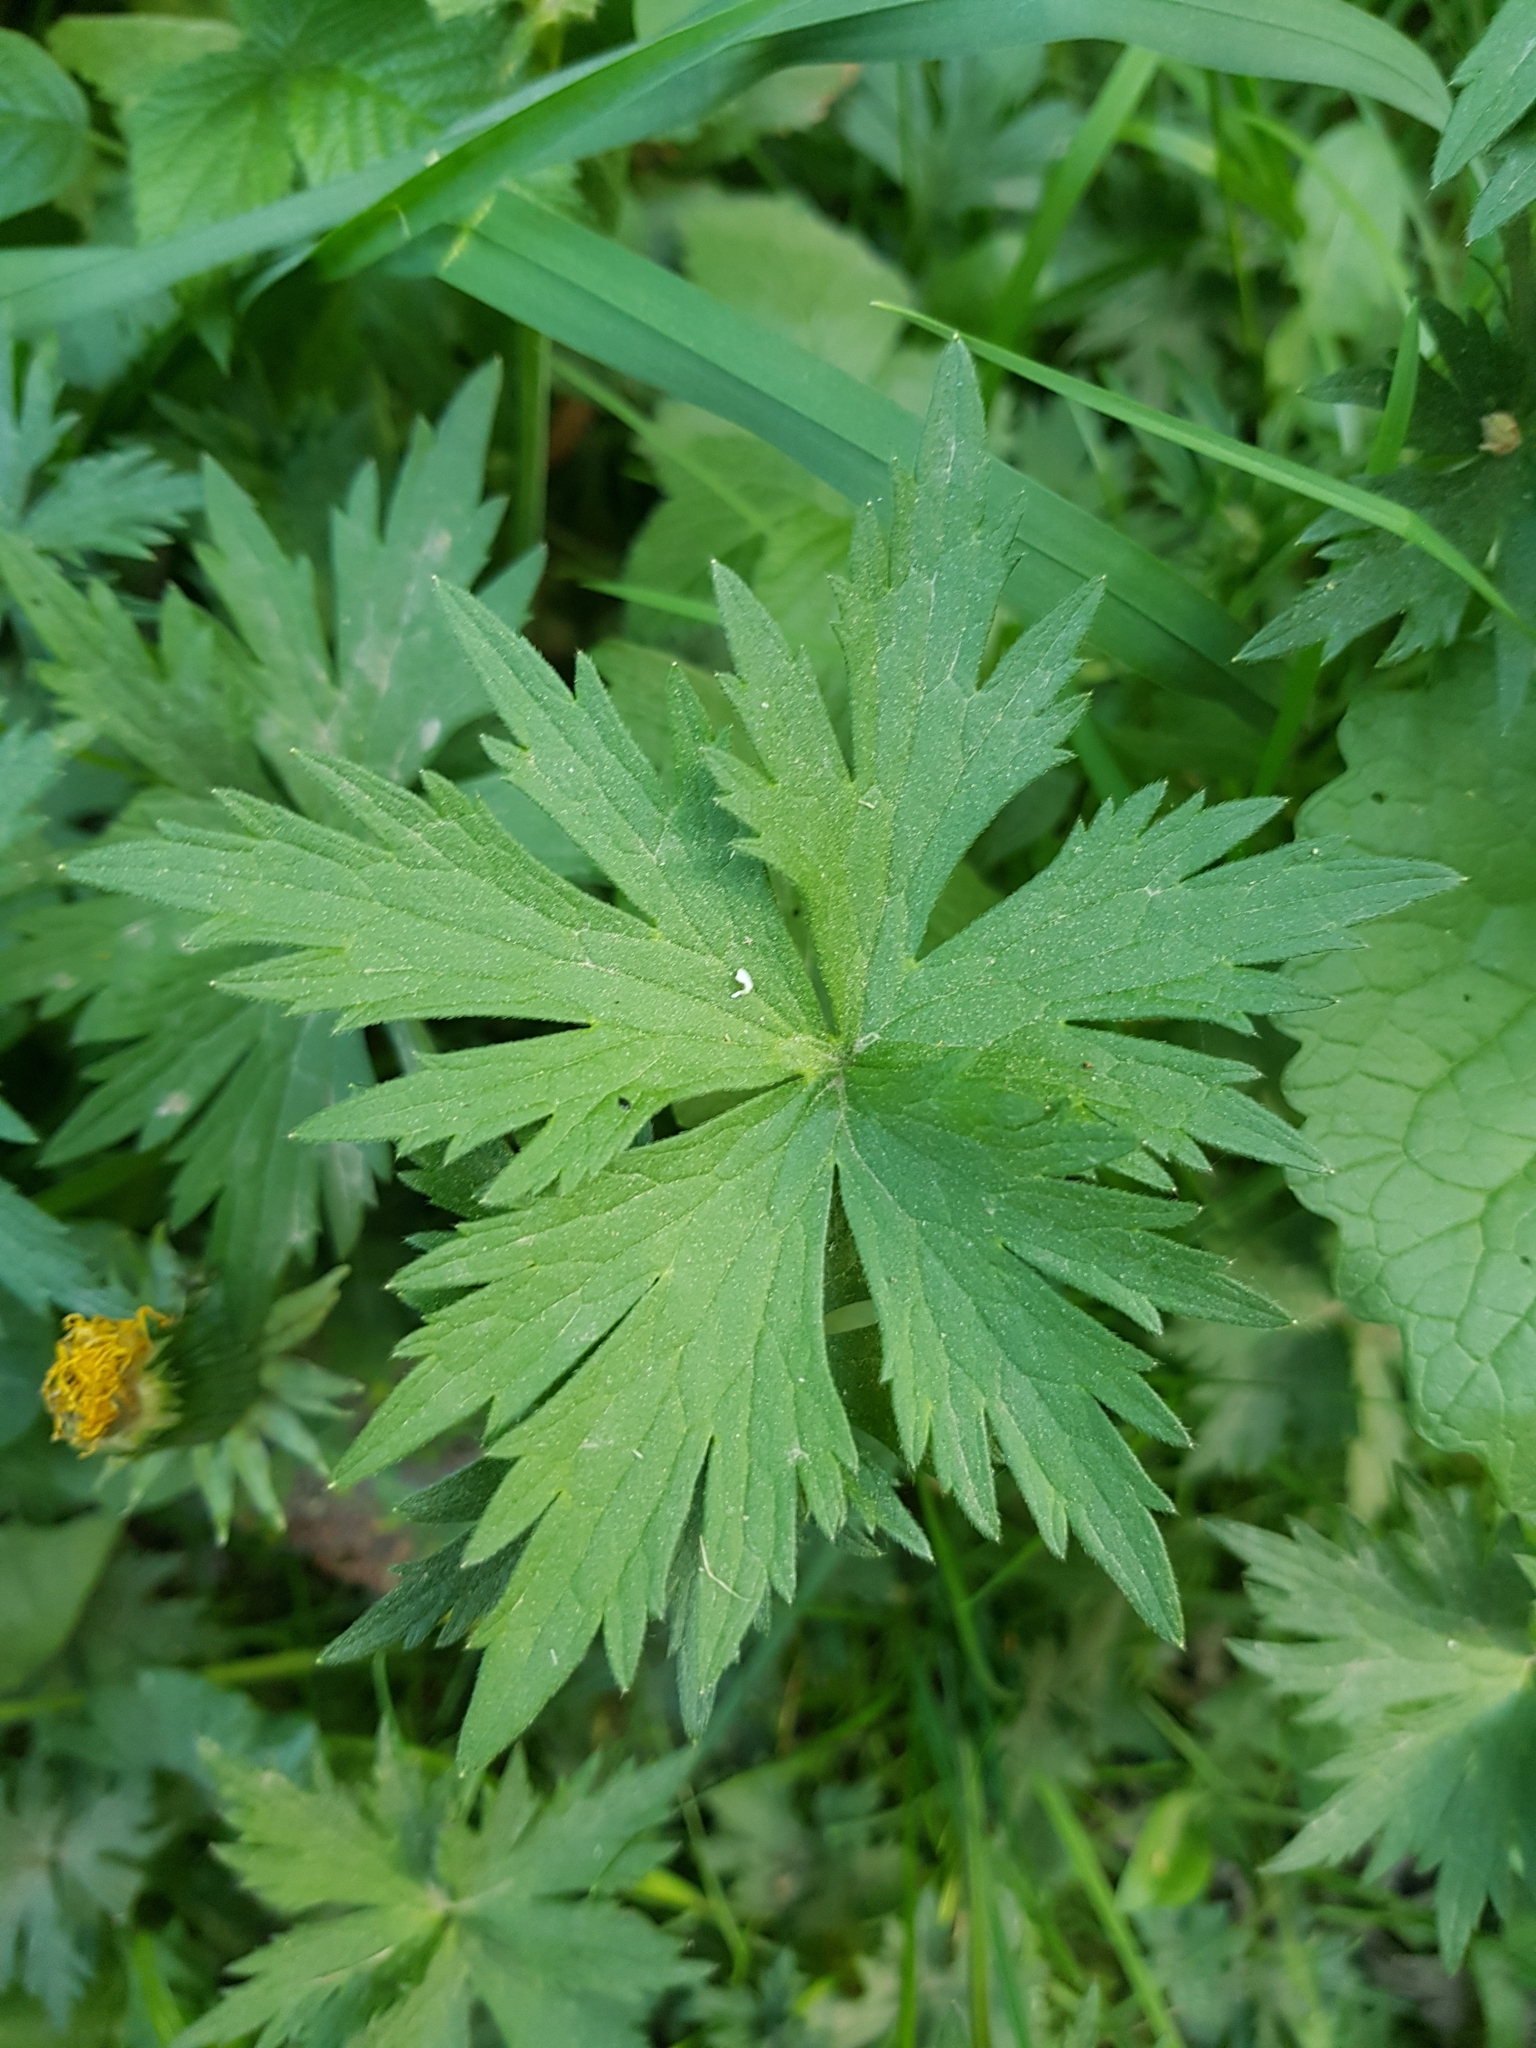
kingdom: Plantae
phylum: Tracheophyta
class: Magnoliopsida
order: Ranunculales
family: Ranunculaceae
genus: Ranunculus
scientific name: Ranunculus acris
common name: Meadow buttercup
